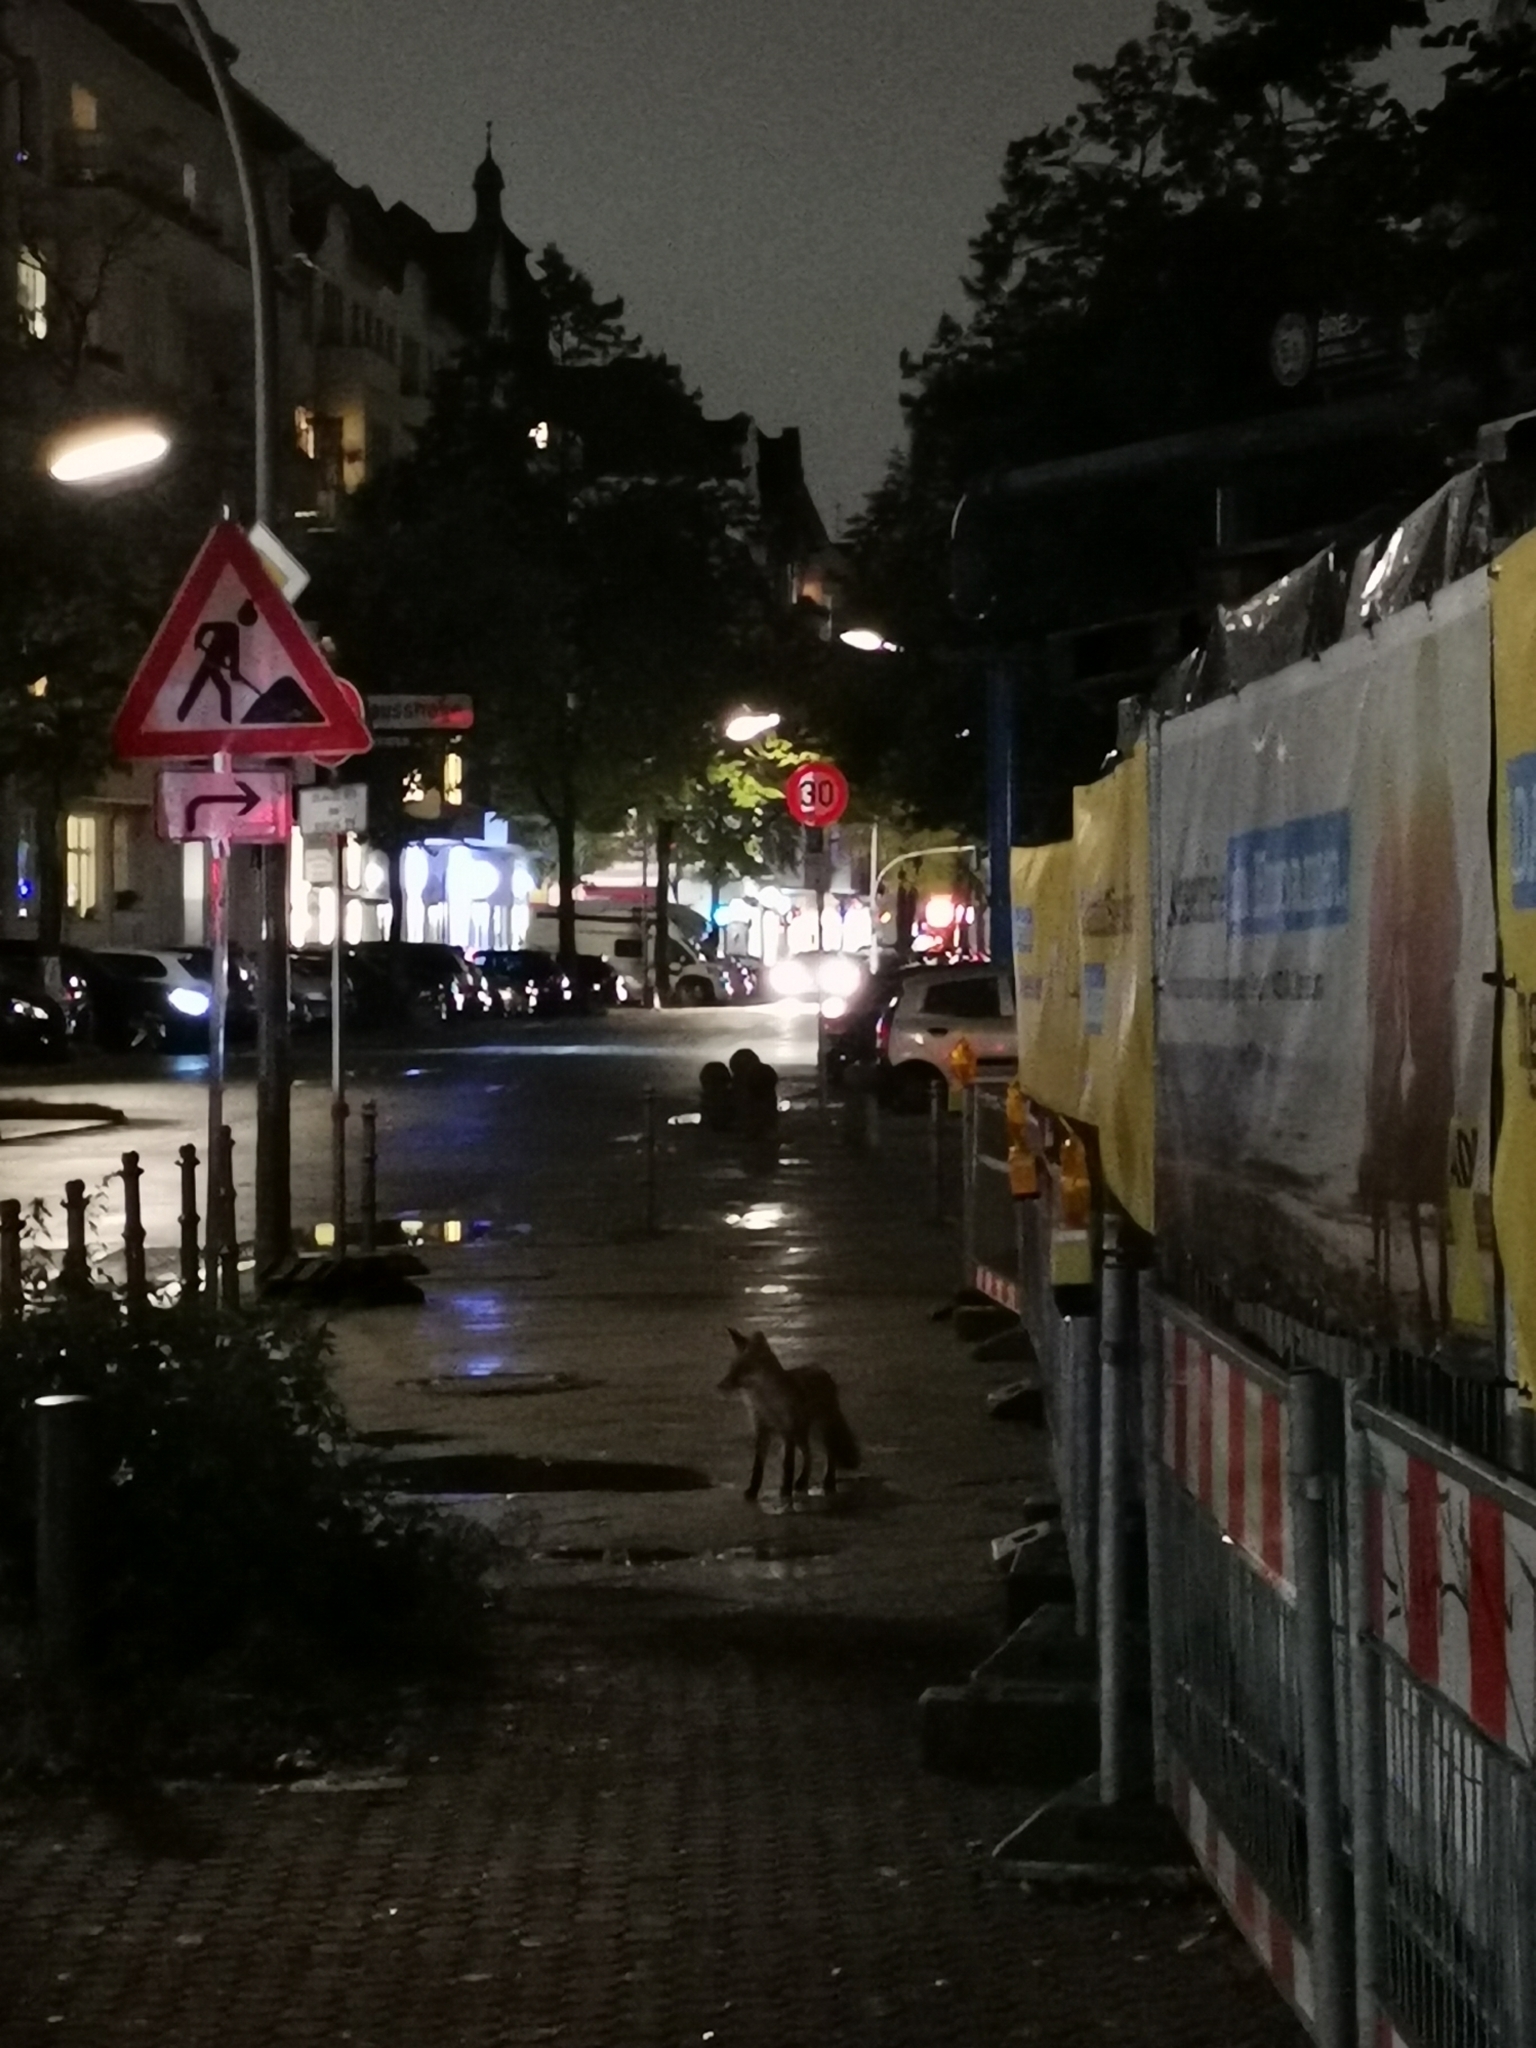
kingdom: Animalia
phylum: Chordata
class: Mammalia
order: Carnivora
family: Canidae
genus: Vulpes
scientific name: Vulpes vulpes
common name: Red fox
